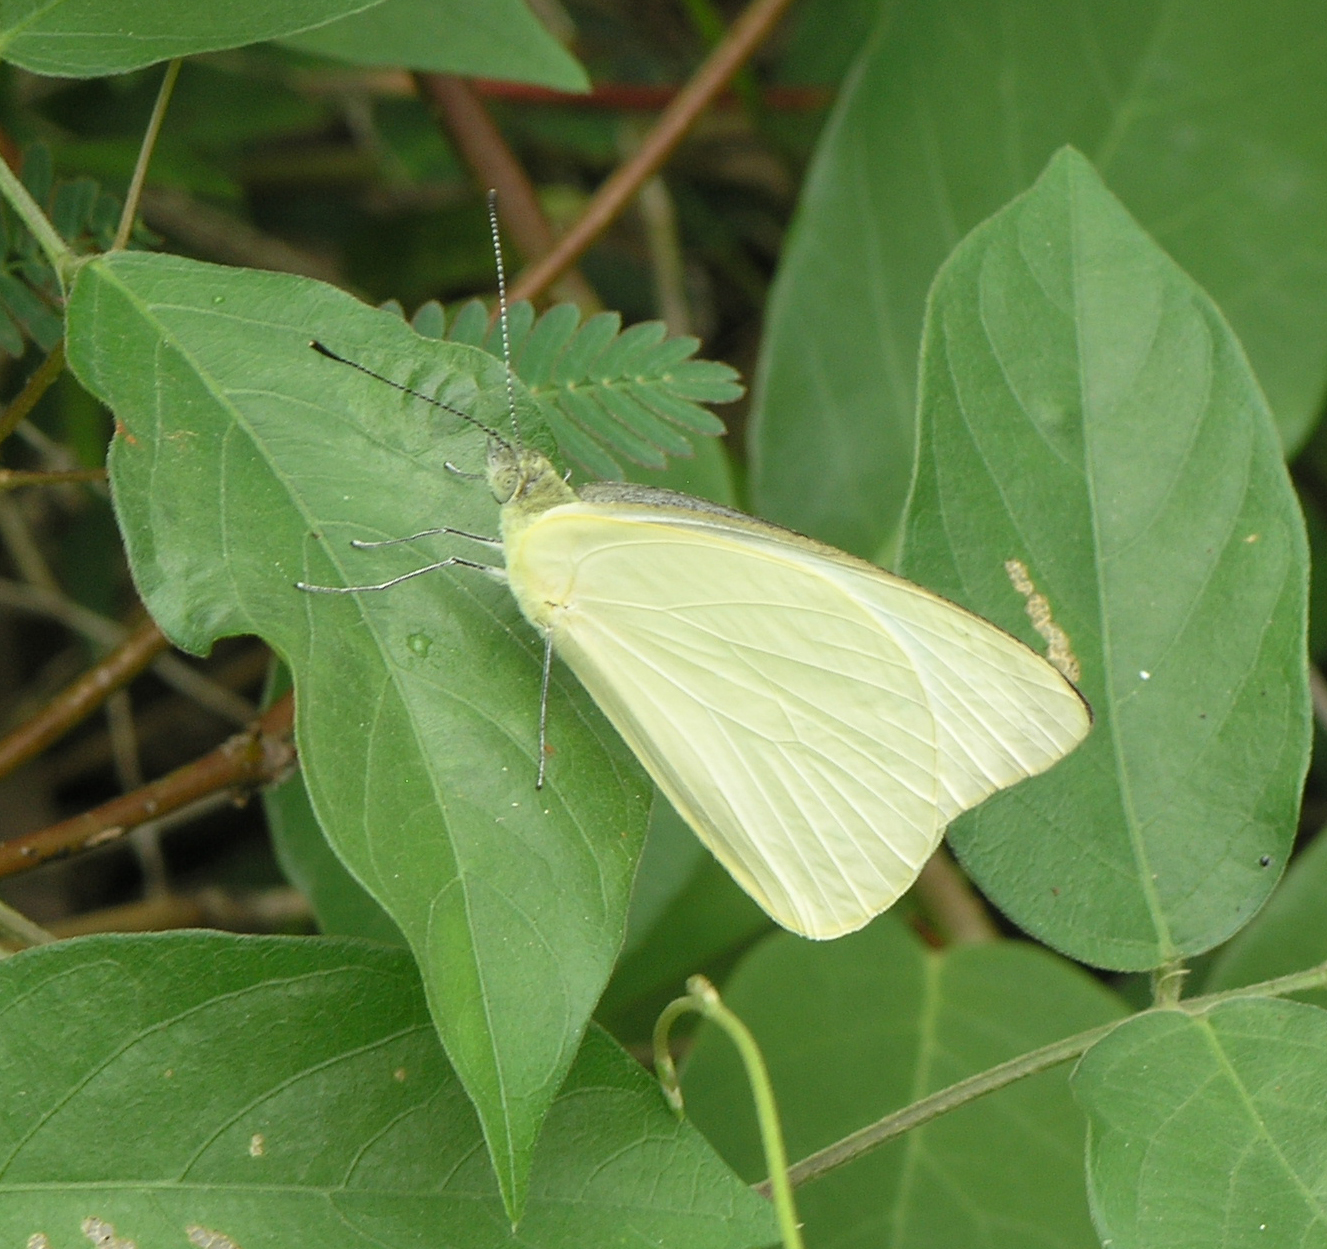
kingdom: Animalia
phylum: Arthropoda
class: Insecta
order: Lepidoptera
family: Pieridae
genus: Appias
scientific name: Appias albina
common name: Common albatross
